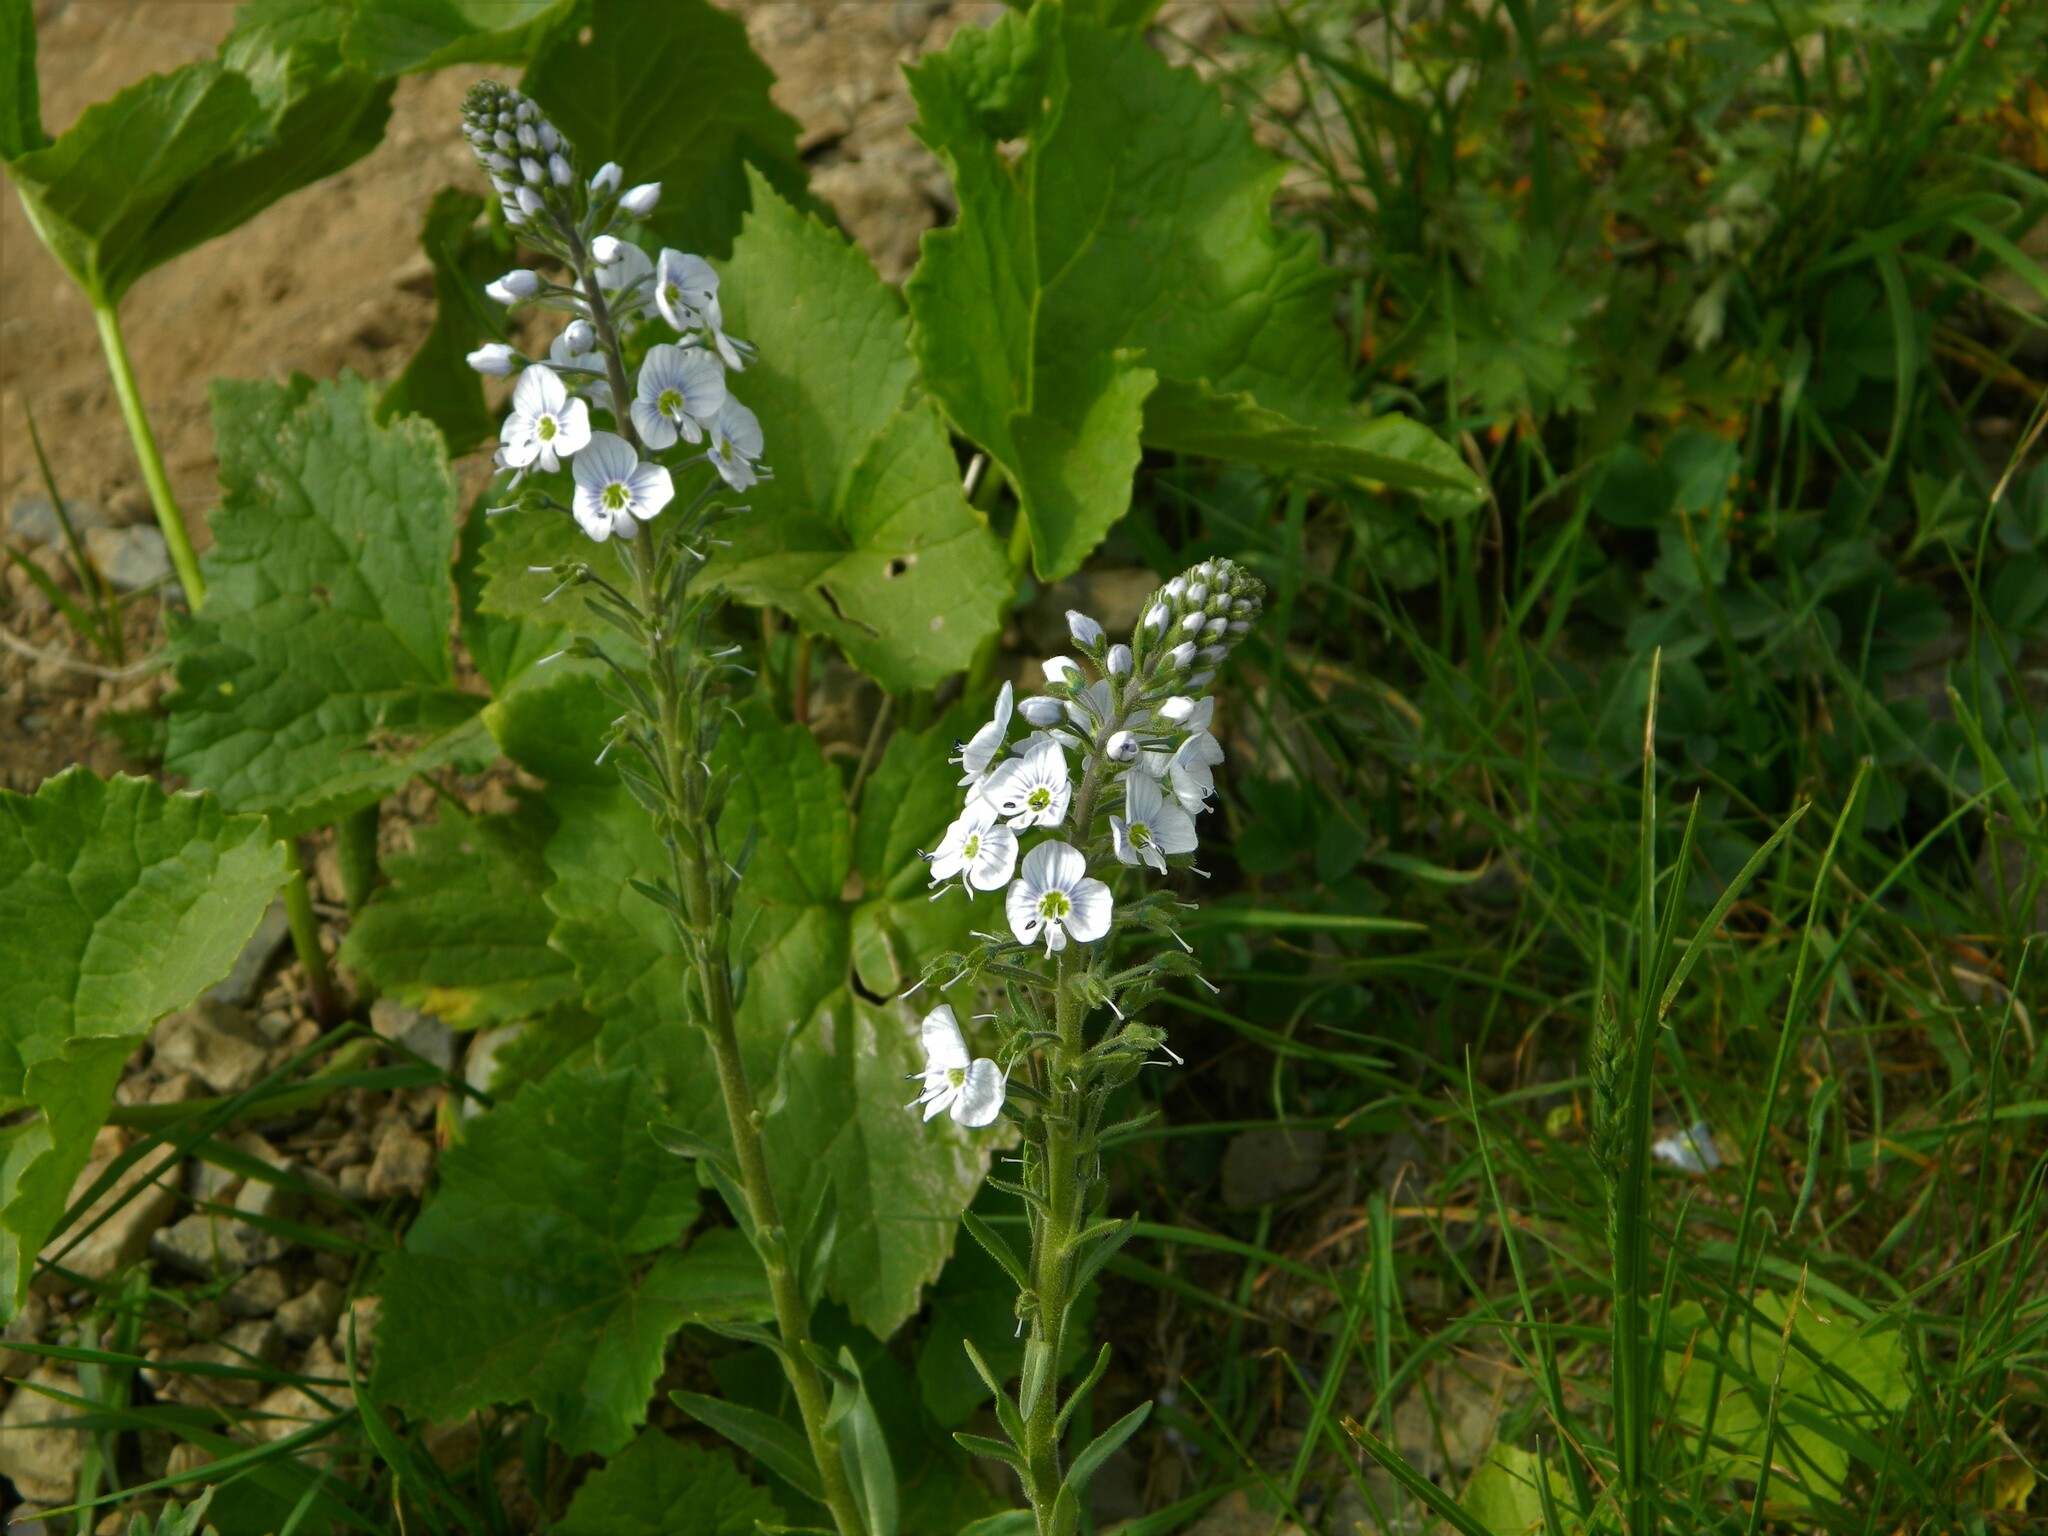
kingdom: Plantae
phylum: Tracheophyta
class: Magnoliopsida
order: Lamiales
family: Plantaginaceae
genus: Veronica
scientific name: Veronica gentianoides
